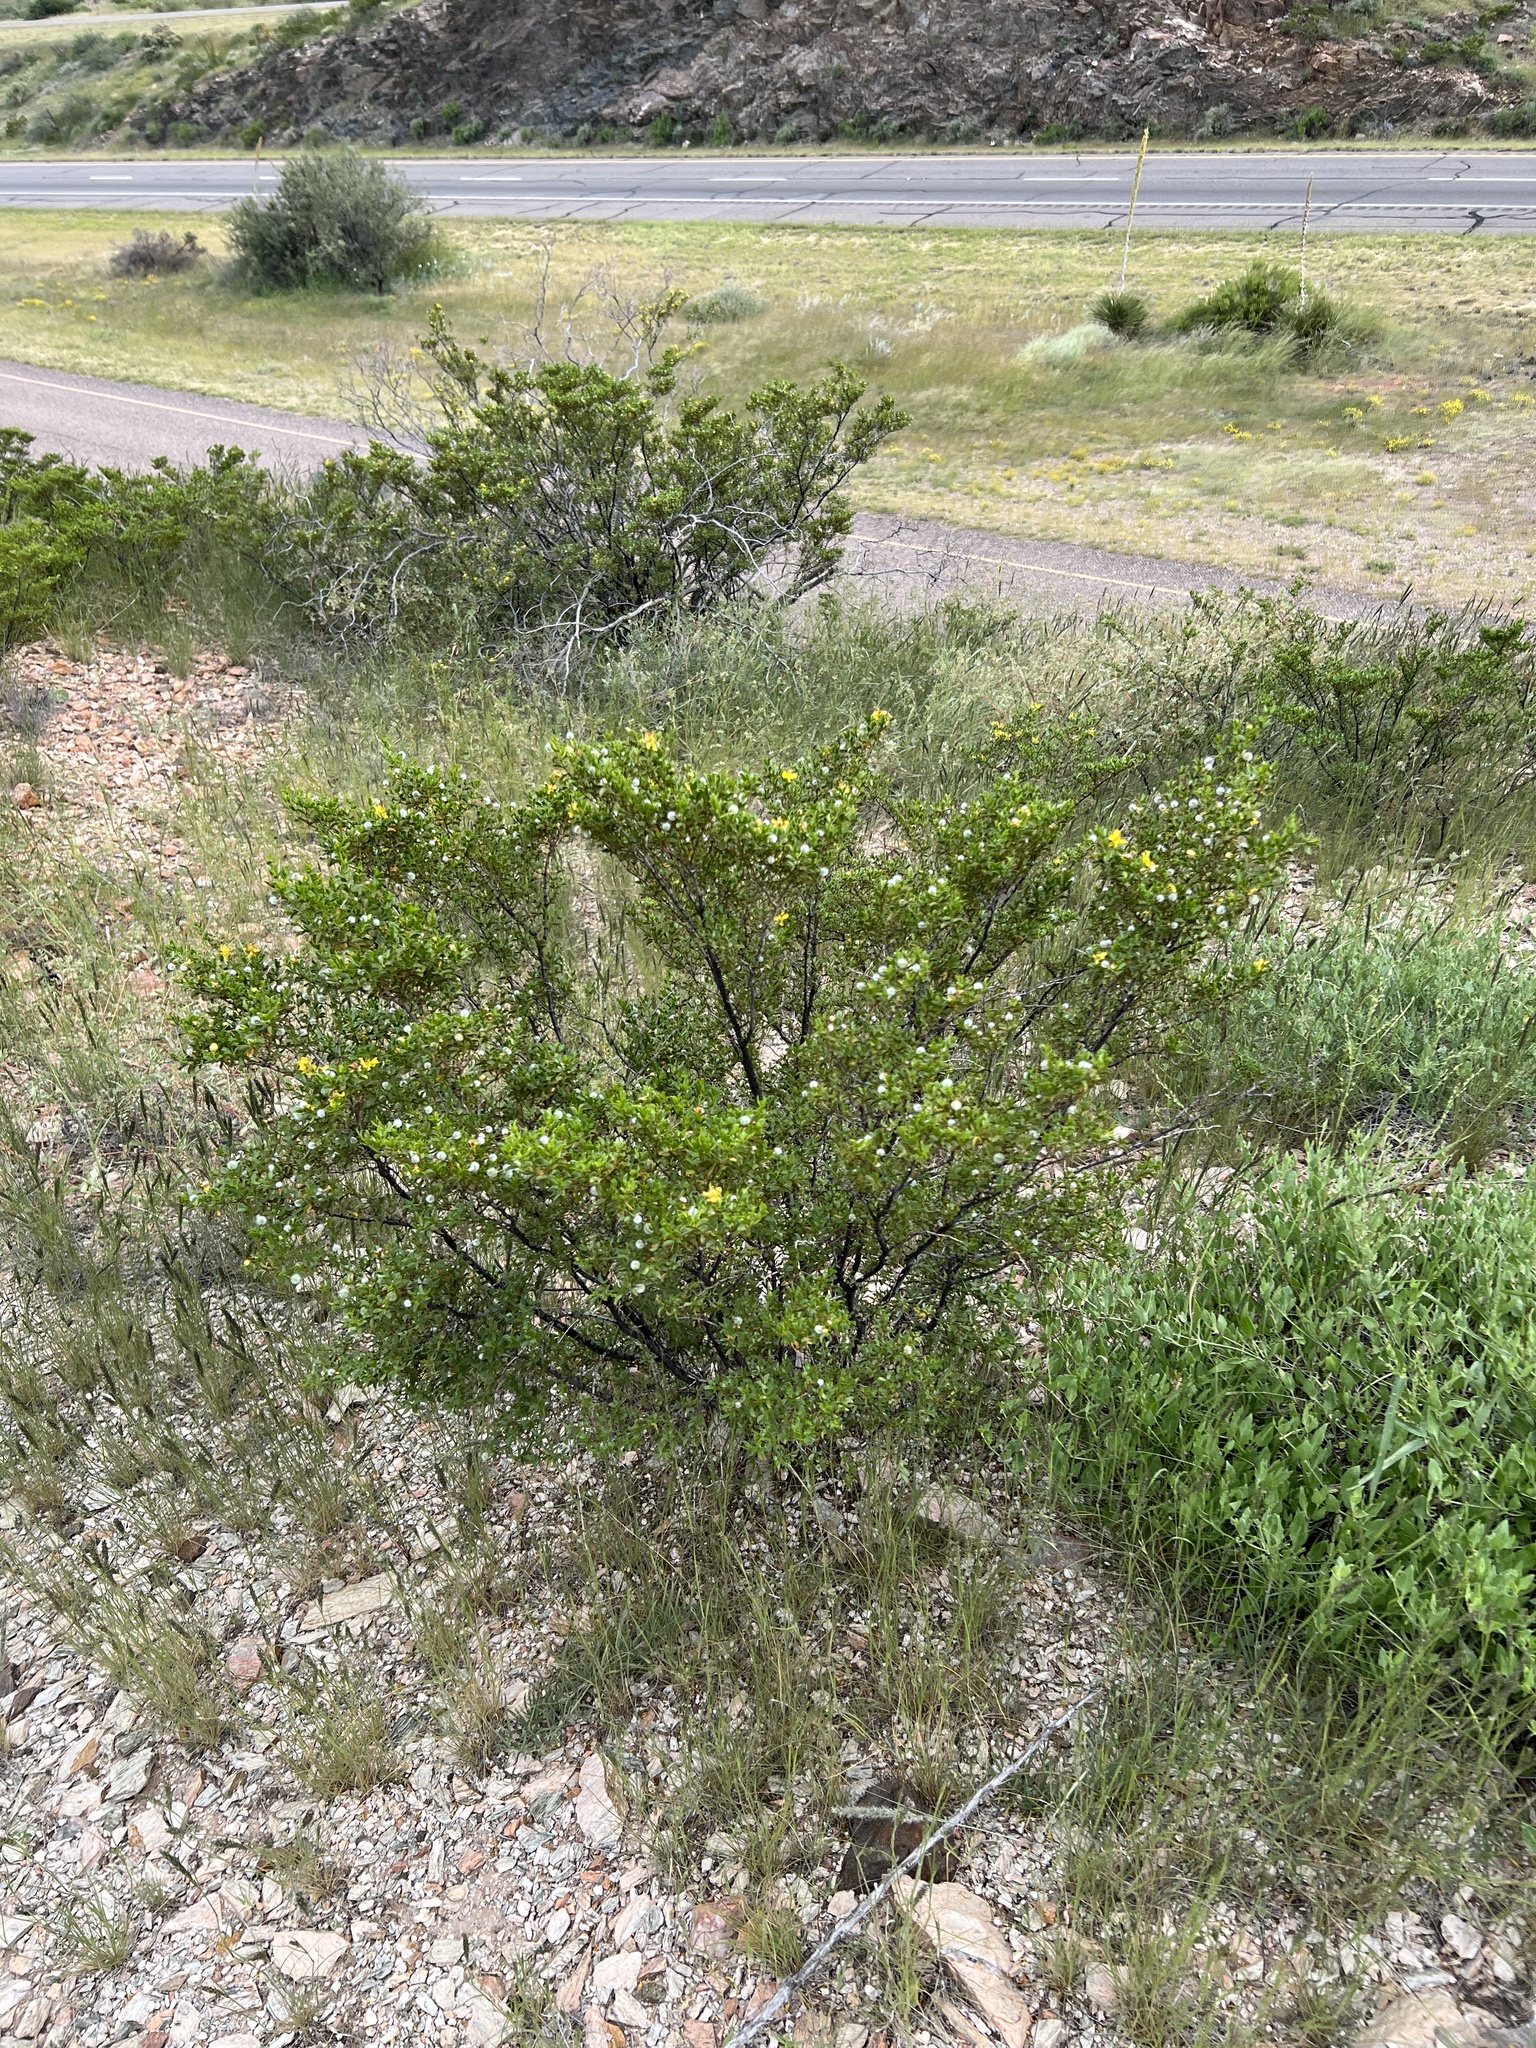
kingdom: Plantae
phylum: Tracheophyta
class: Magnoliopsida
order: Zygophyllales
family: Zygophyllaceae
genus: Larrea
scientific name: Larrea tridentata
